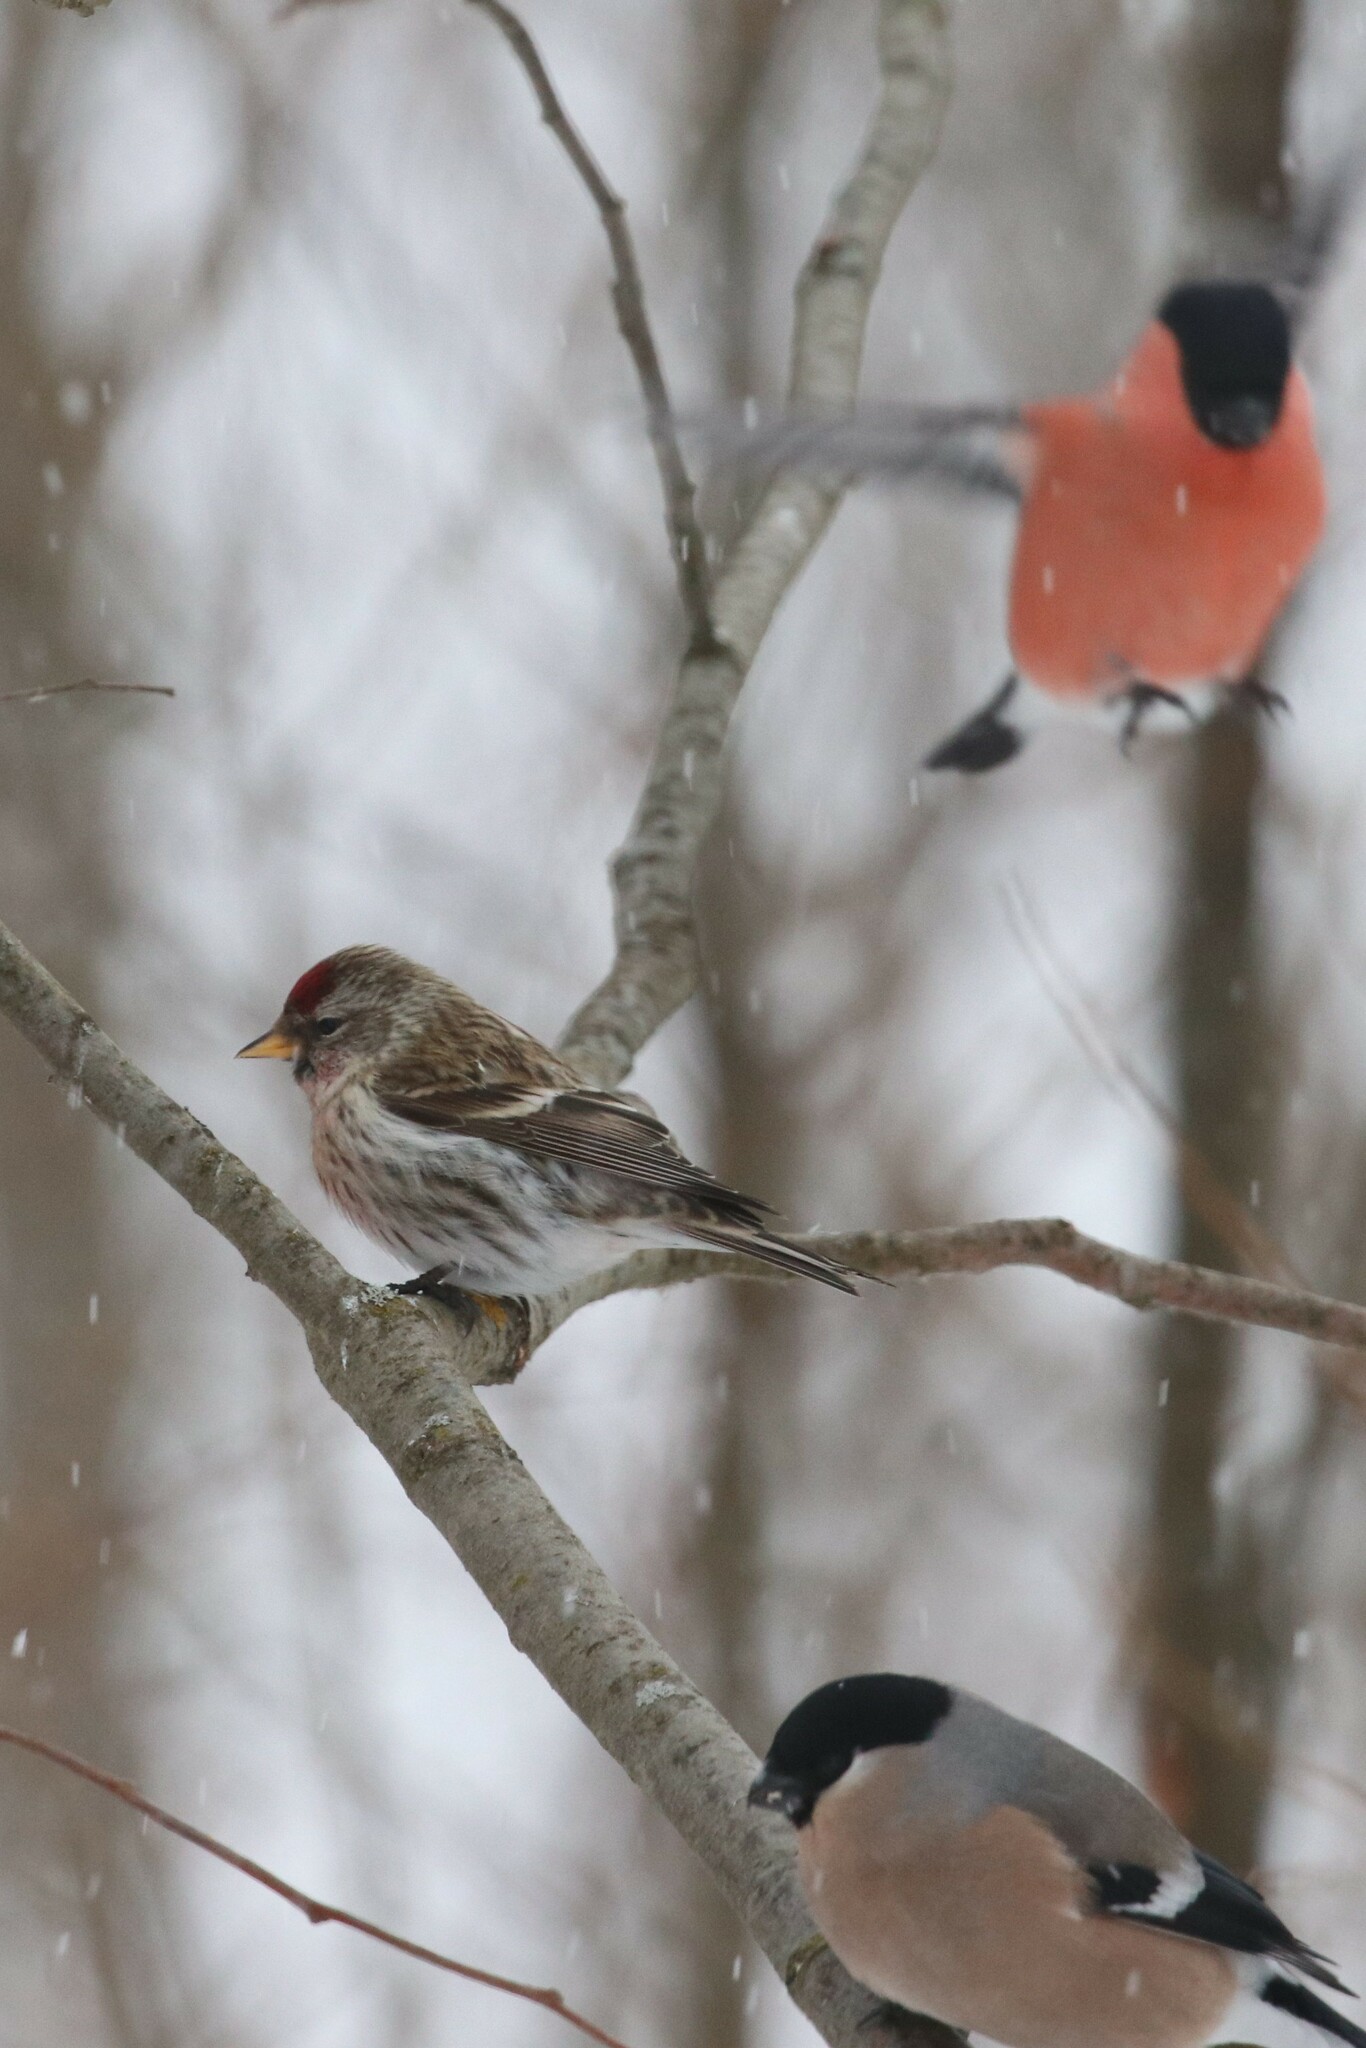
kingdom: Animalia
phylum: Chordata
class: Aves
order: Passeriformes
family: Fringillidae
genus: Acanthis
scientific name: Acanthis flammea
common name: Common redpoll
